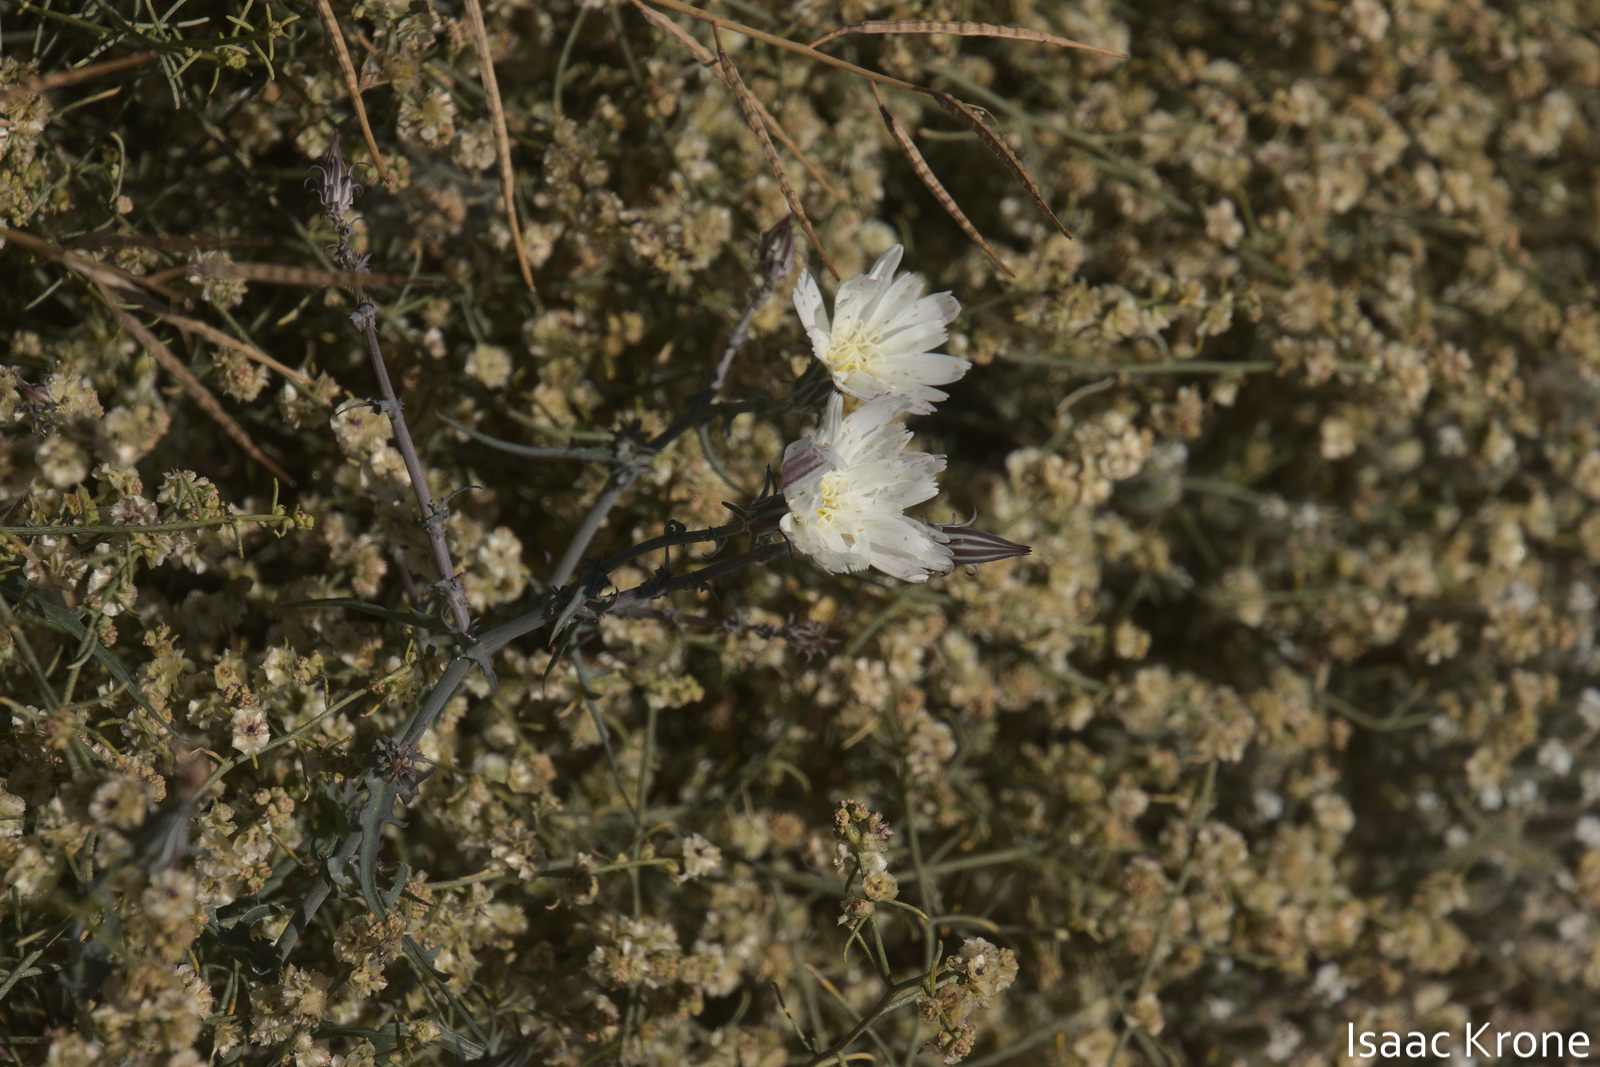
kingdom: Plantae
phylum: Tracheophyta
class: Magnoliopsida
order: Asterales
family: Asteraceae
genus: Rafinesquia
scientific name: Rafinesquia neomexicana
